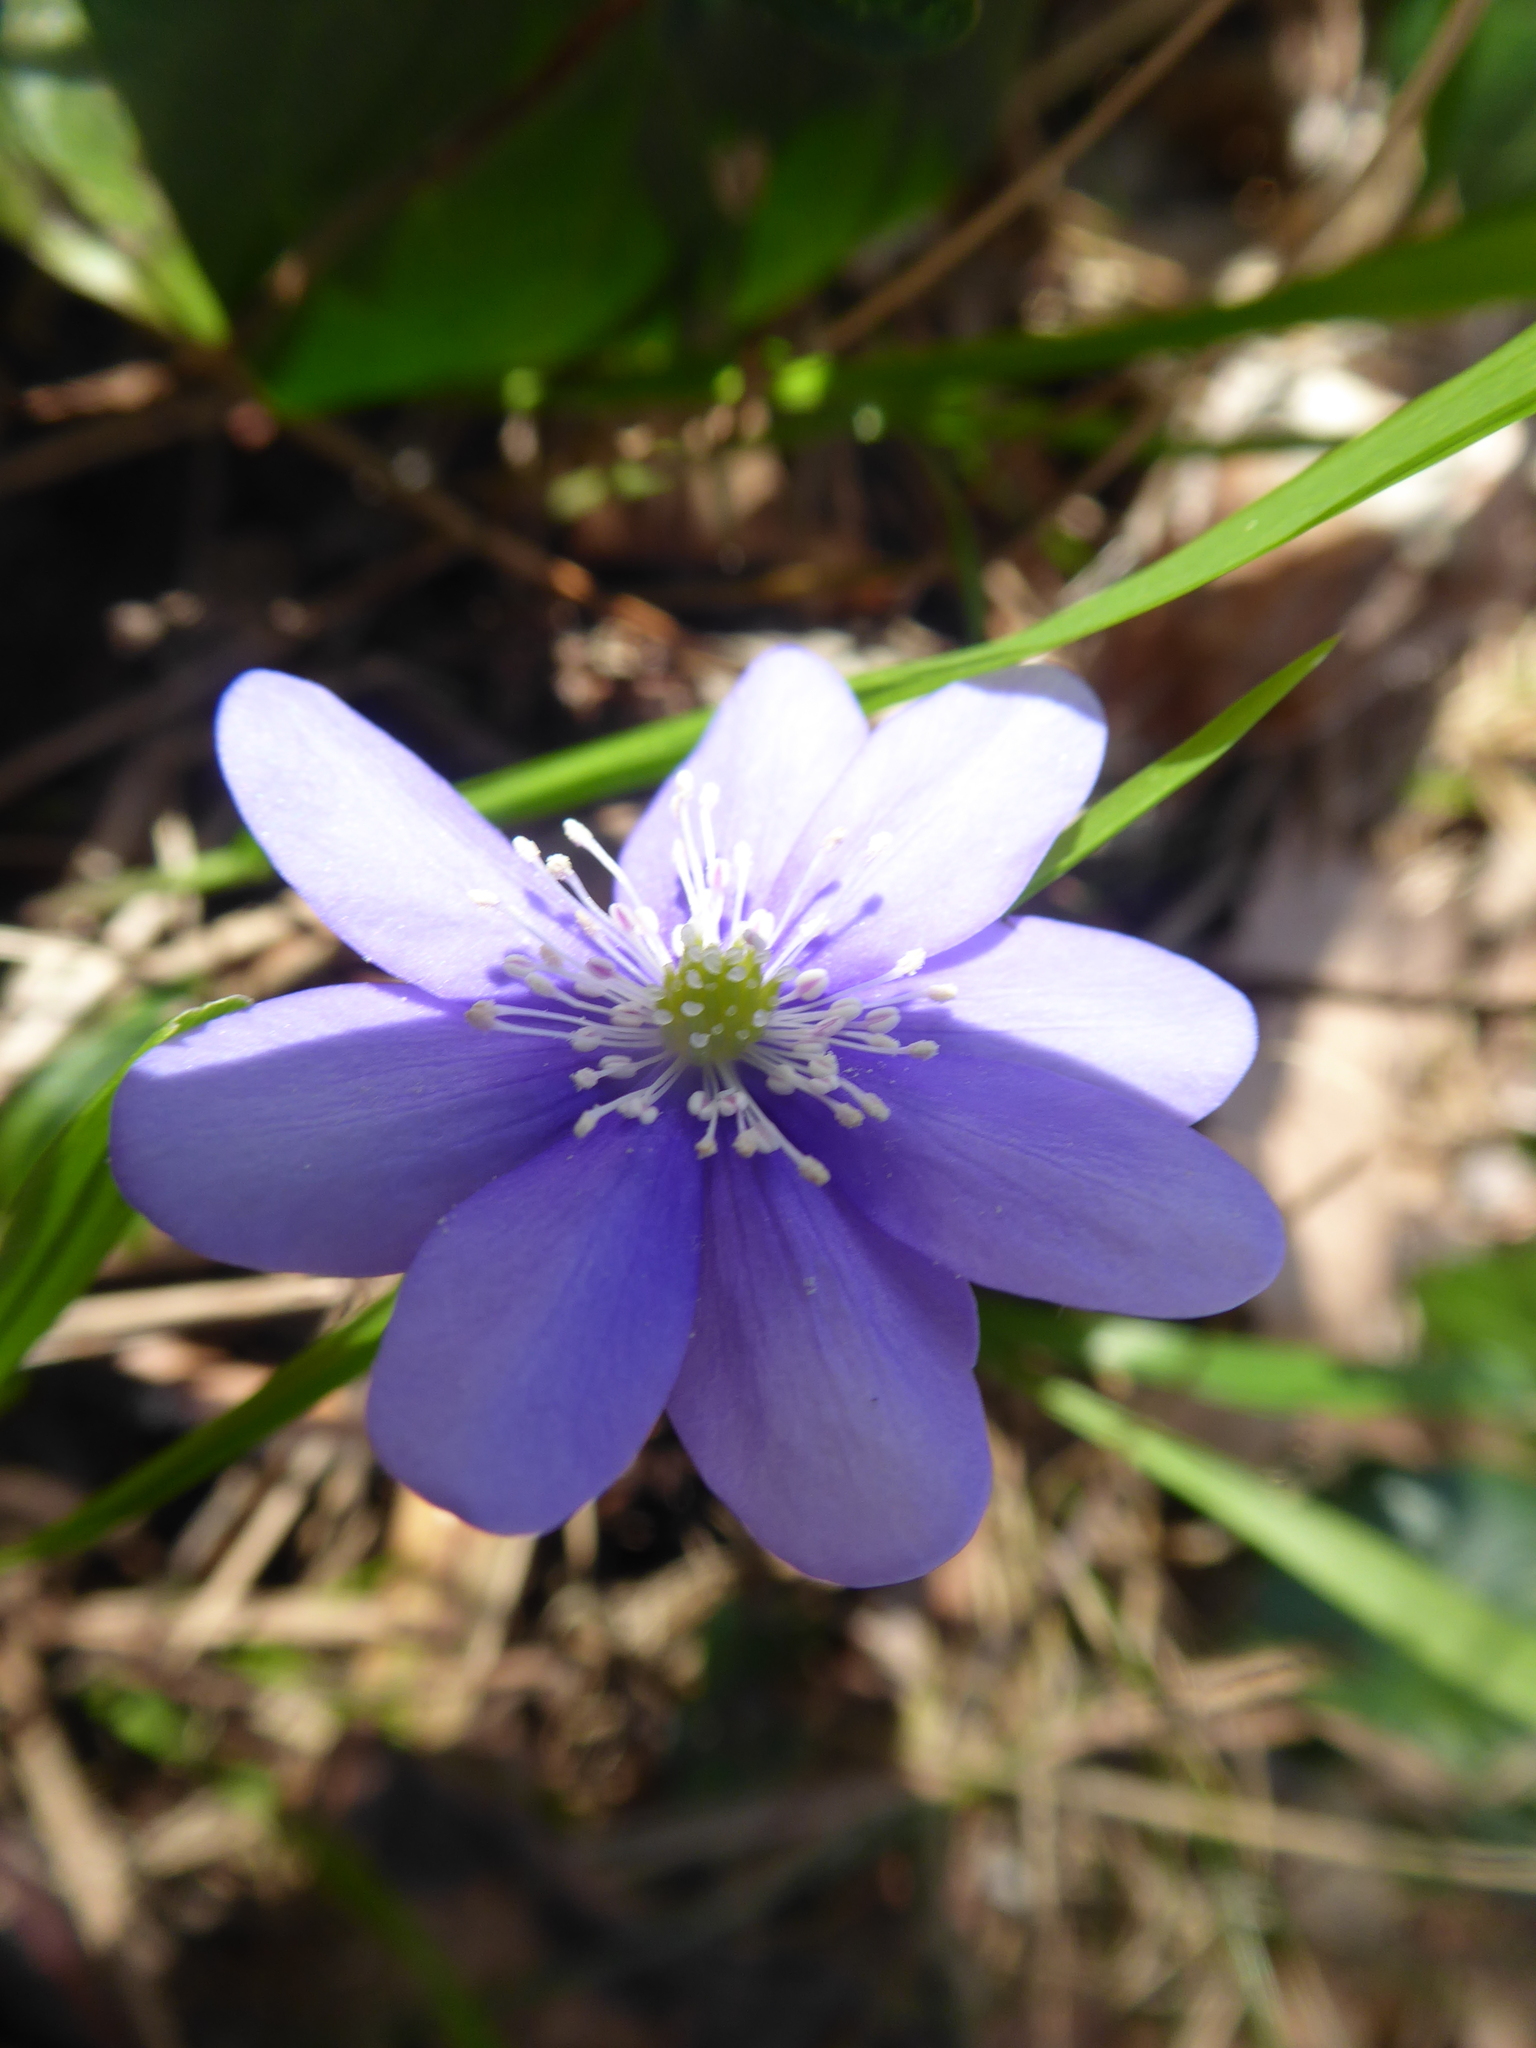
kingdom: Plantae
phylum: Tracheophyta
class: Magnoliopsida
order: Ranunculales
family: Ranunculaceae
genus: Hepatica
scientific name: Hepatica nobilis
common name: Liverleaf
